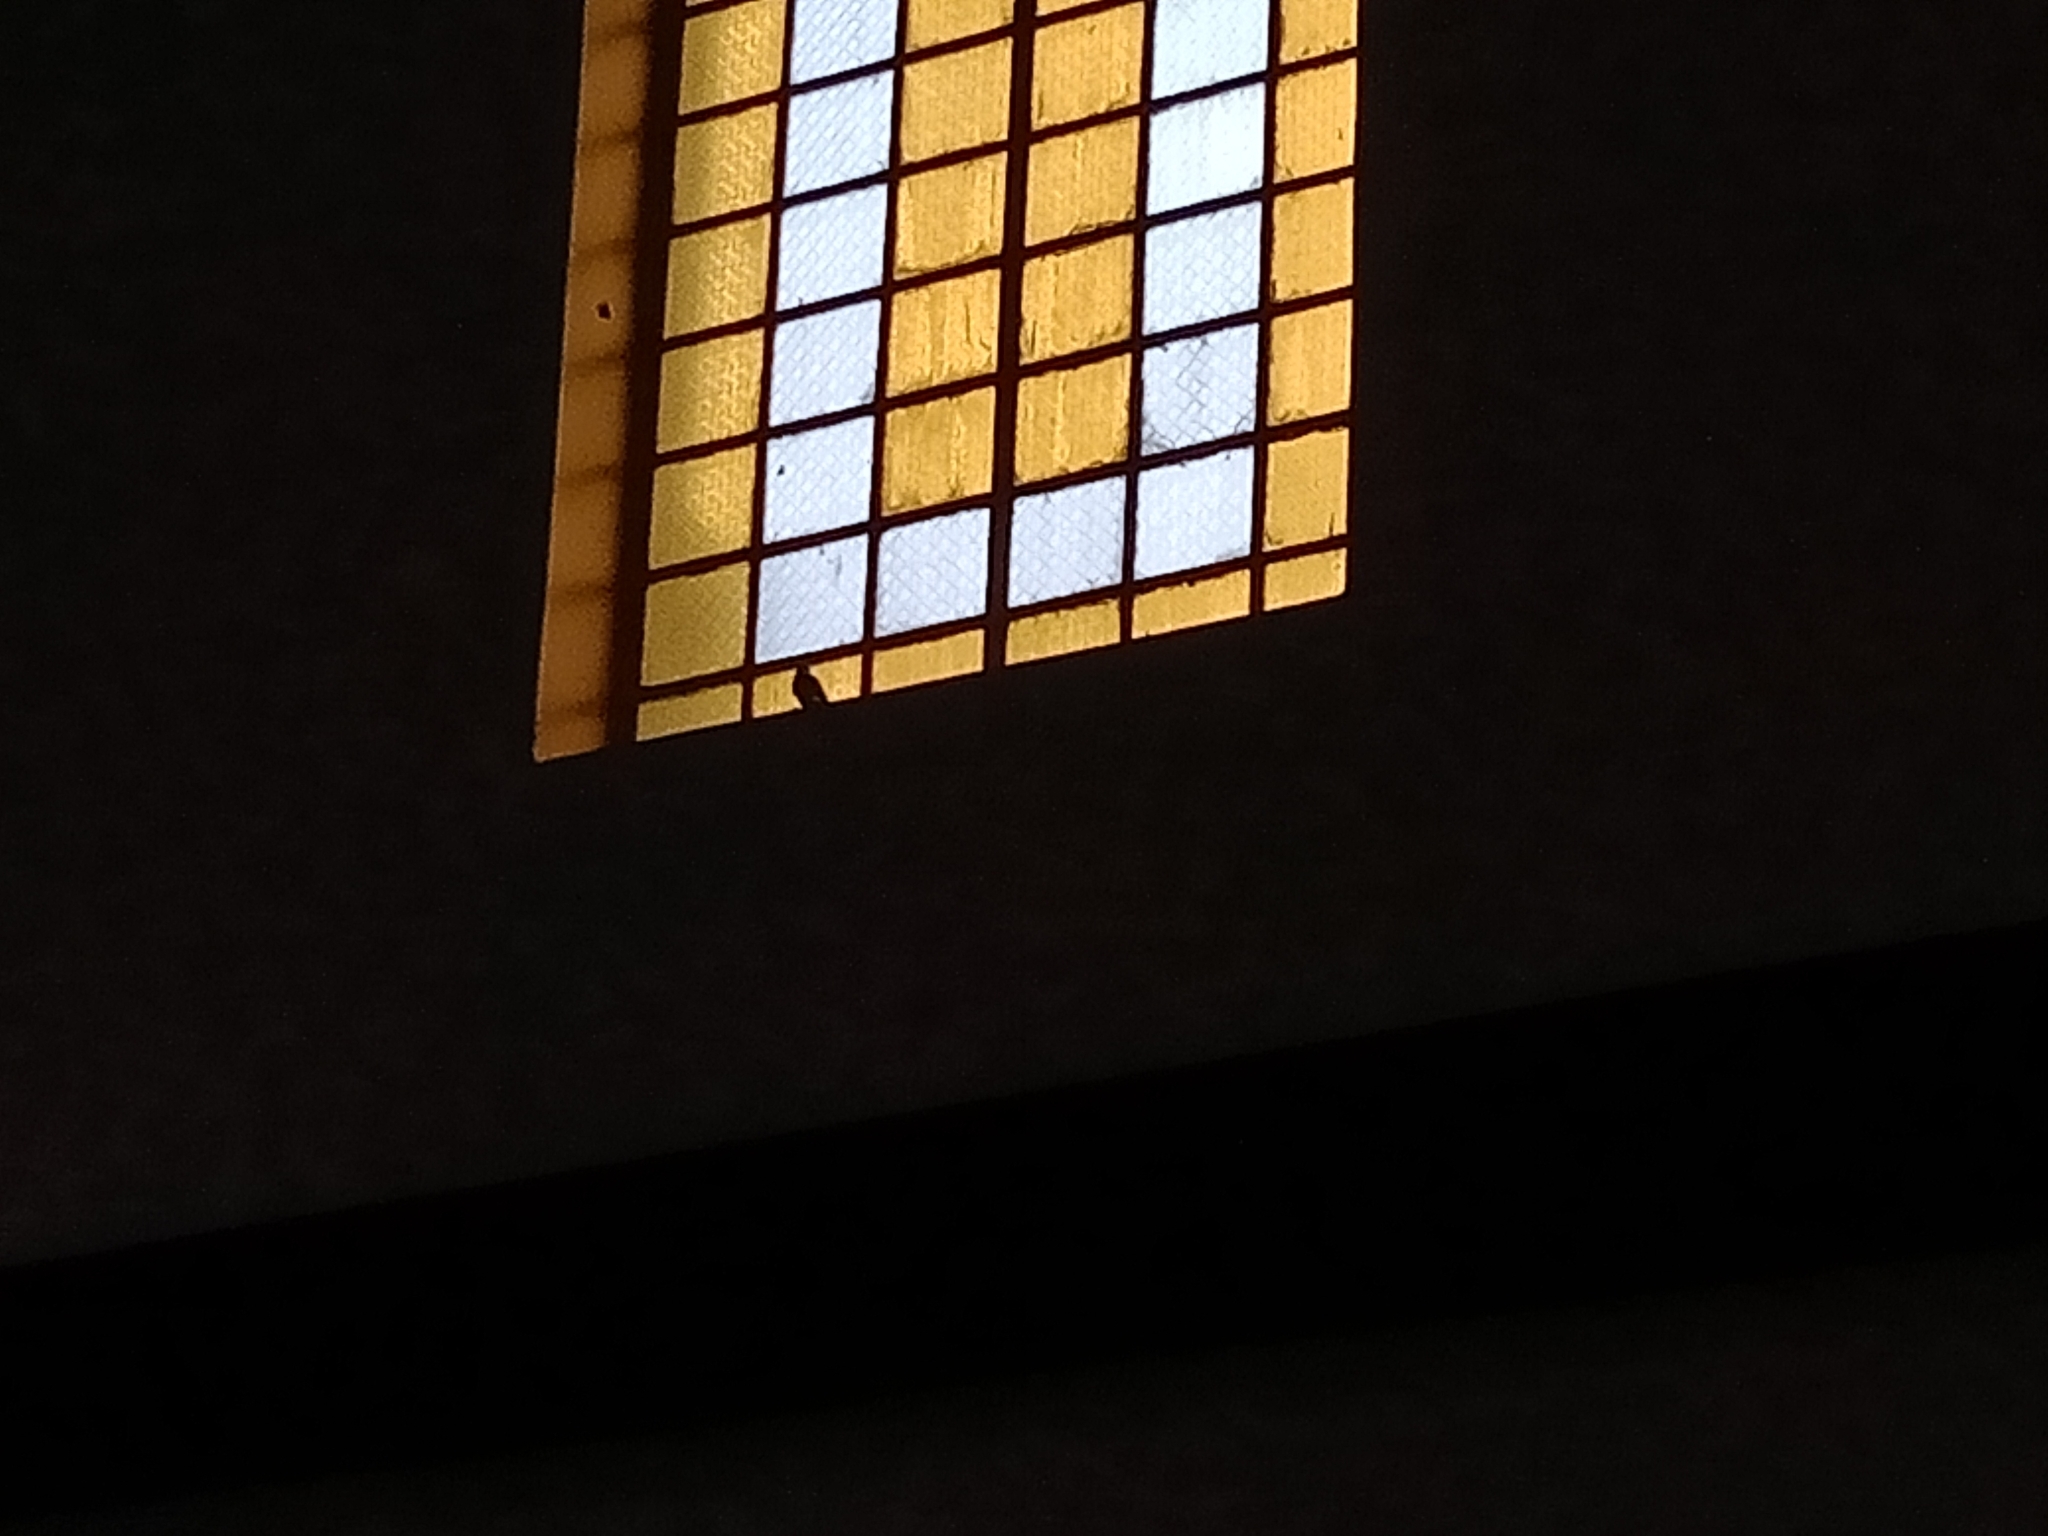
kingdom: Animalia
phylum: Chordata
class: Aves
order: Passeriformes
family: Rhipiduridae
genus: Rhipidura
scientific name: Rhipidura nigritorquis
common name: Philippine pied fantail
